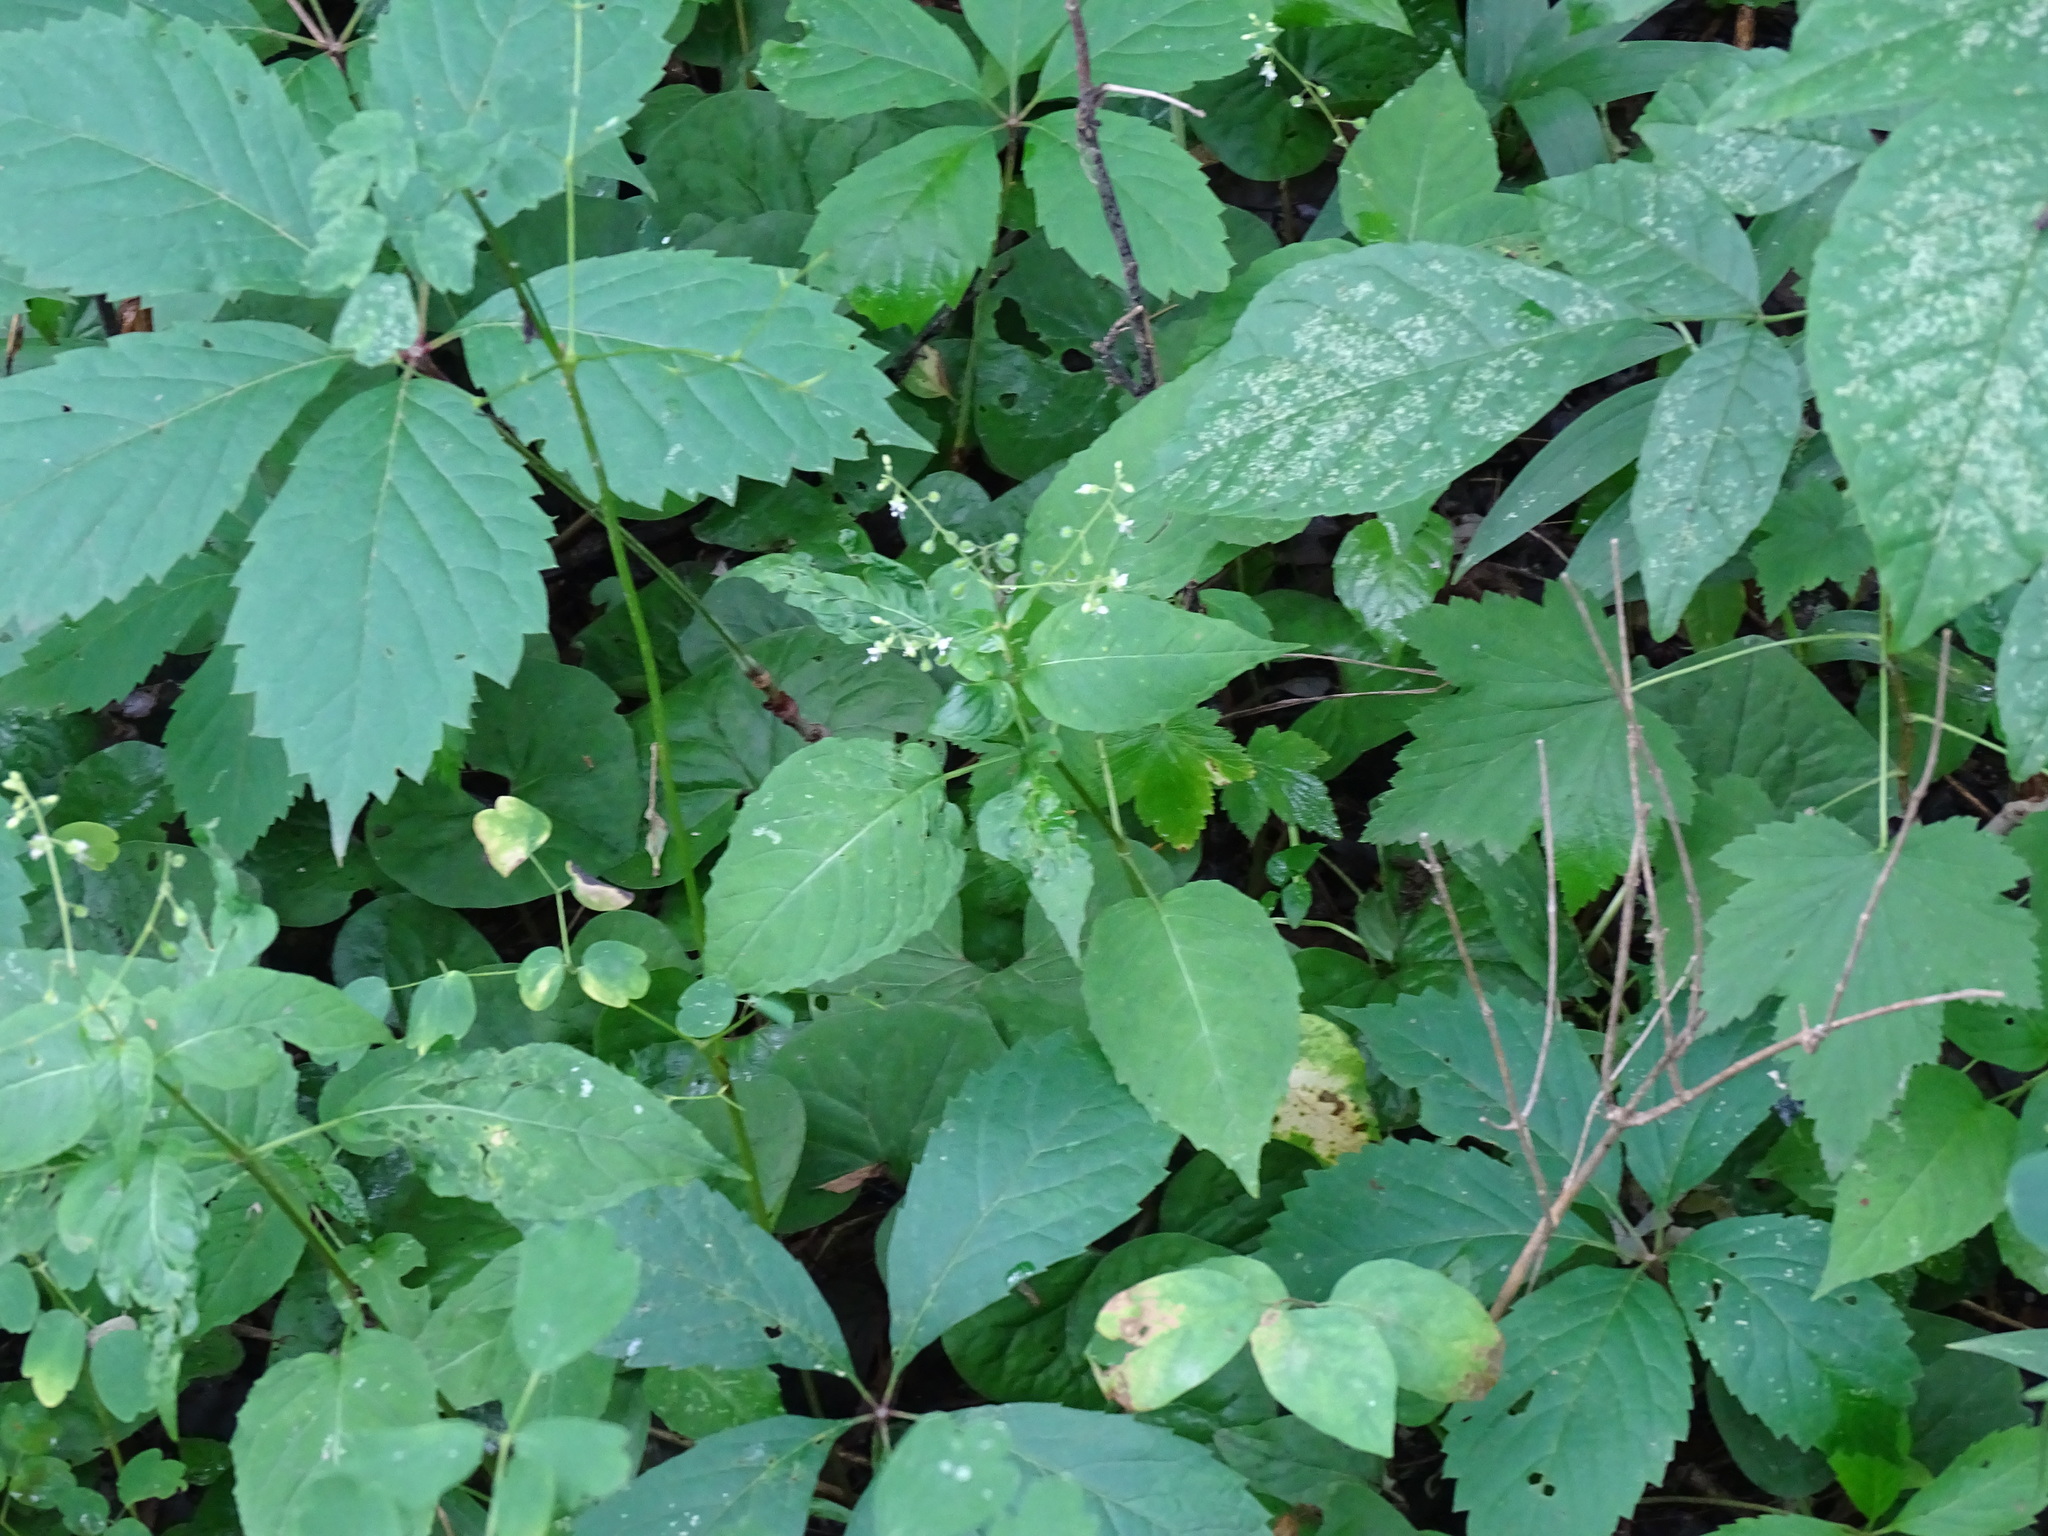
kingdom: Plantae
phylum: Tracheophyta
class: Magnoliopsida
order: Myrtales
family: Onagraceae
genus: Circaea
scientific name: Circaea canadensis
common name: Broad-leaved enchanter's nightshade
